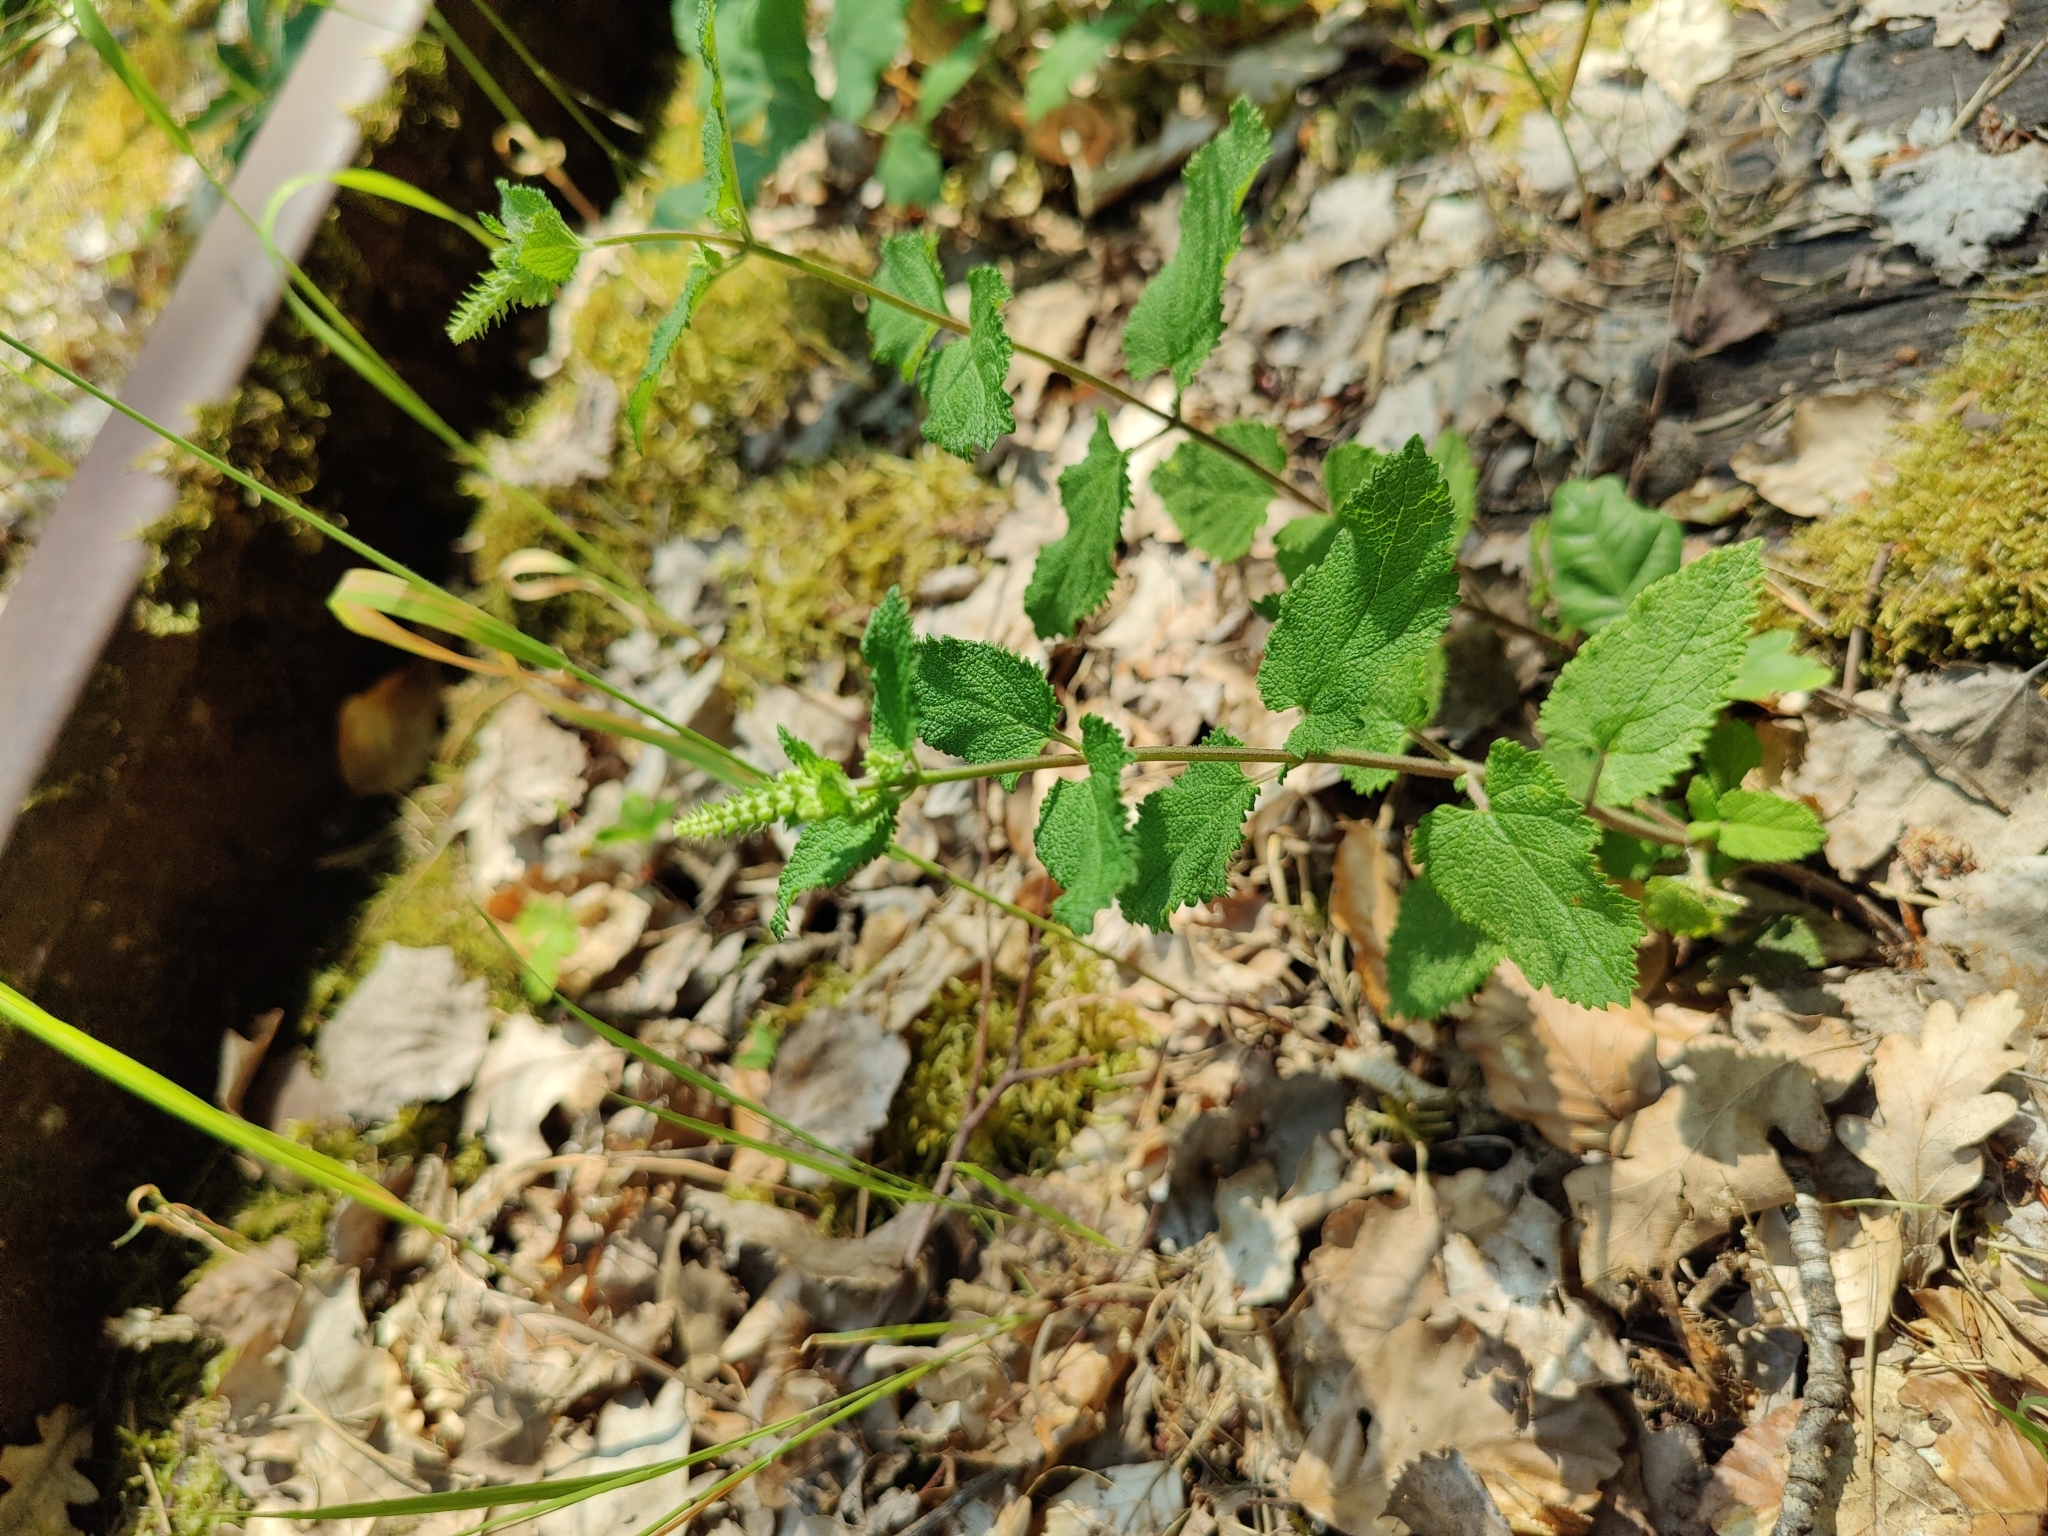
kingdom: Plantae
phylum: Tracheophyta
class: Magnoliopsida
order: Lamiales
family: Lamiaceae
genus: Teucrium
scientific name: Teucrium scorodonia
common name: Woodland germander
